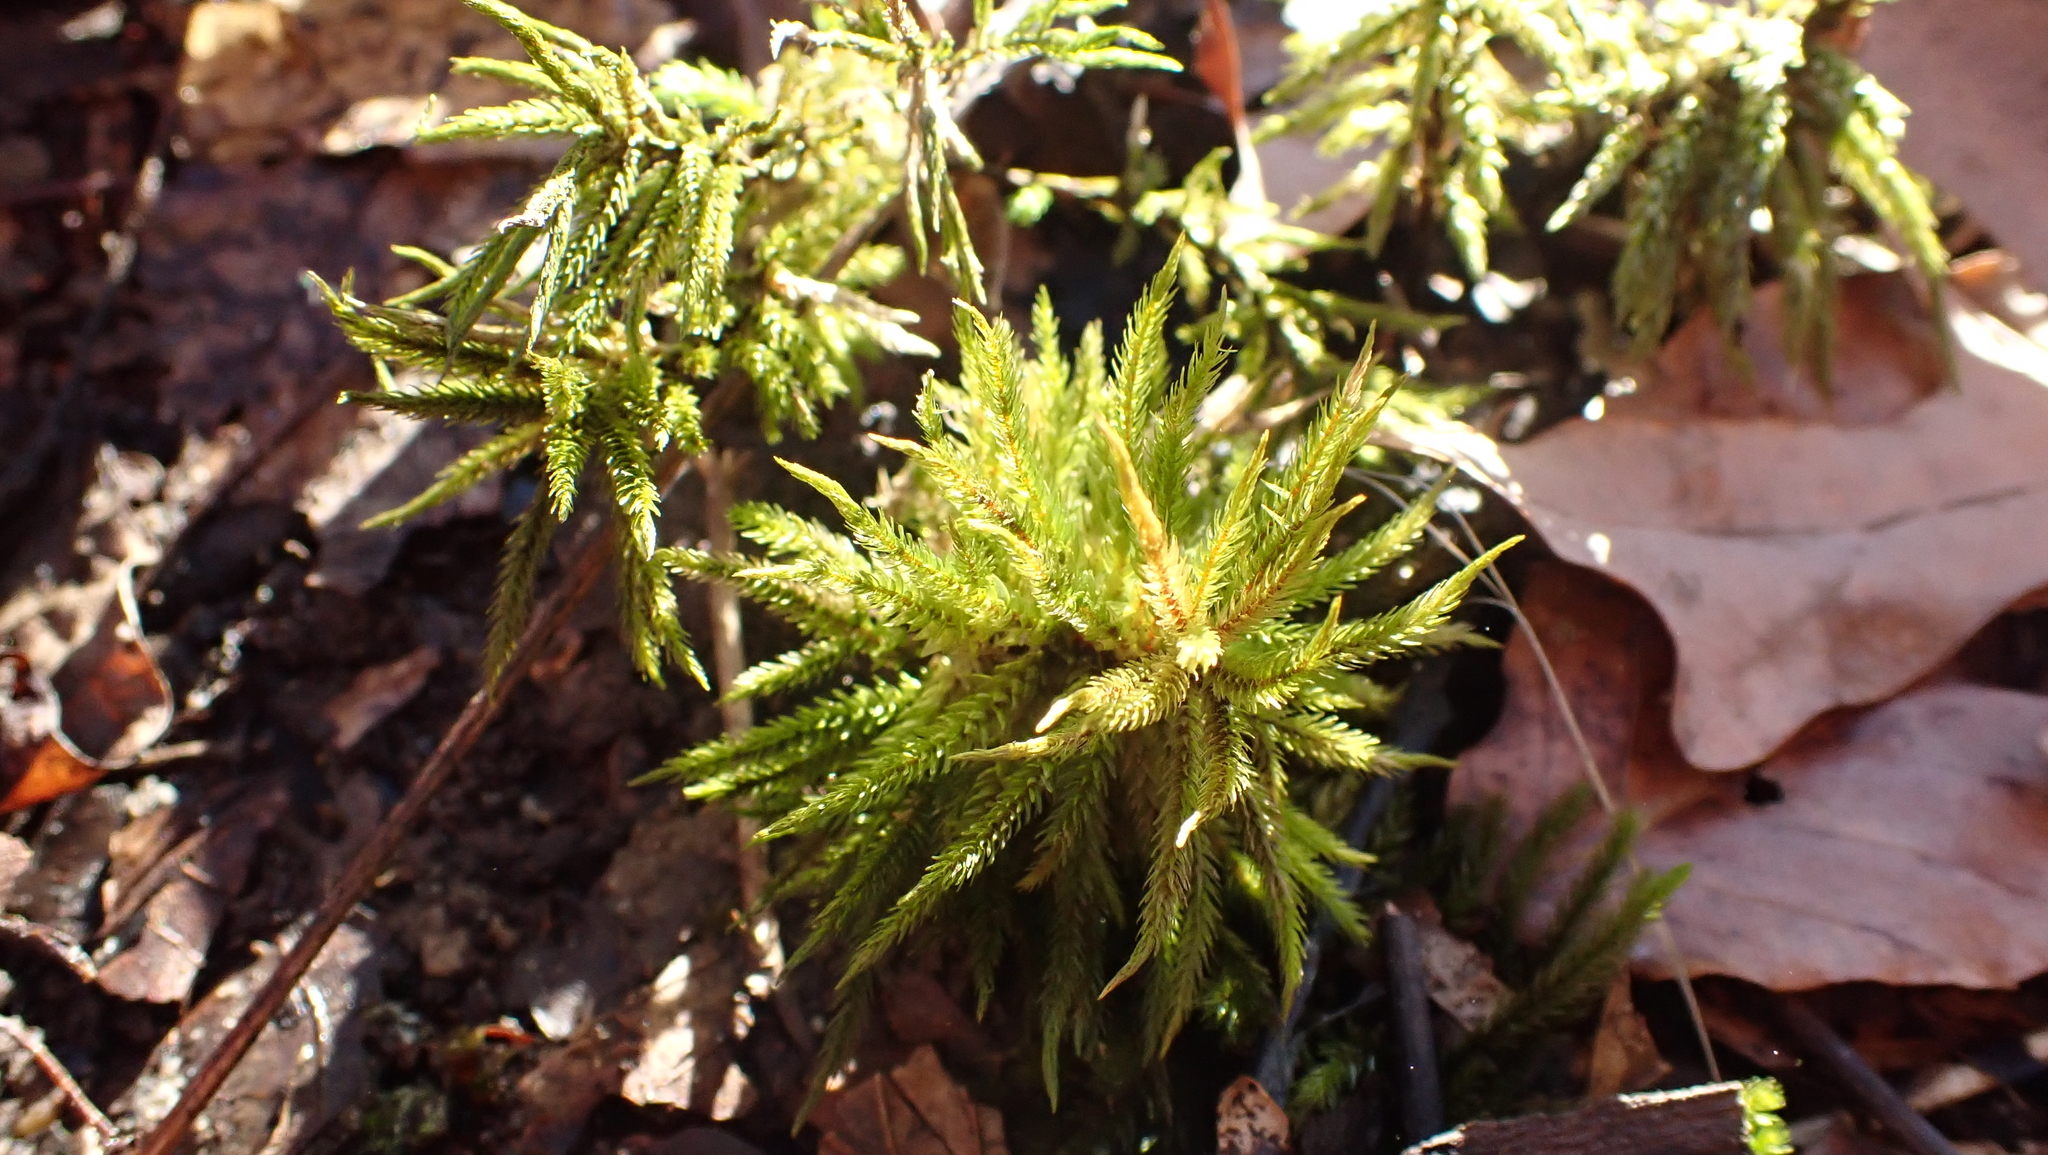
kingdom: Plantae
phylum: Bryophyta
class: Bryopsida
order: Hypnales
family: Climaciaceae
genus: Climacium
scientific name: Climacium dendroides
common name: Northern tree moss
